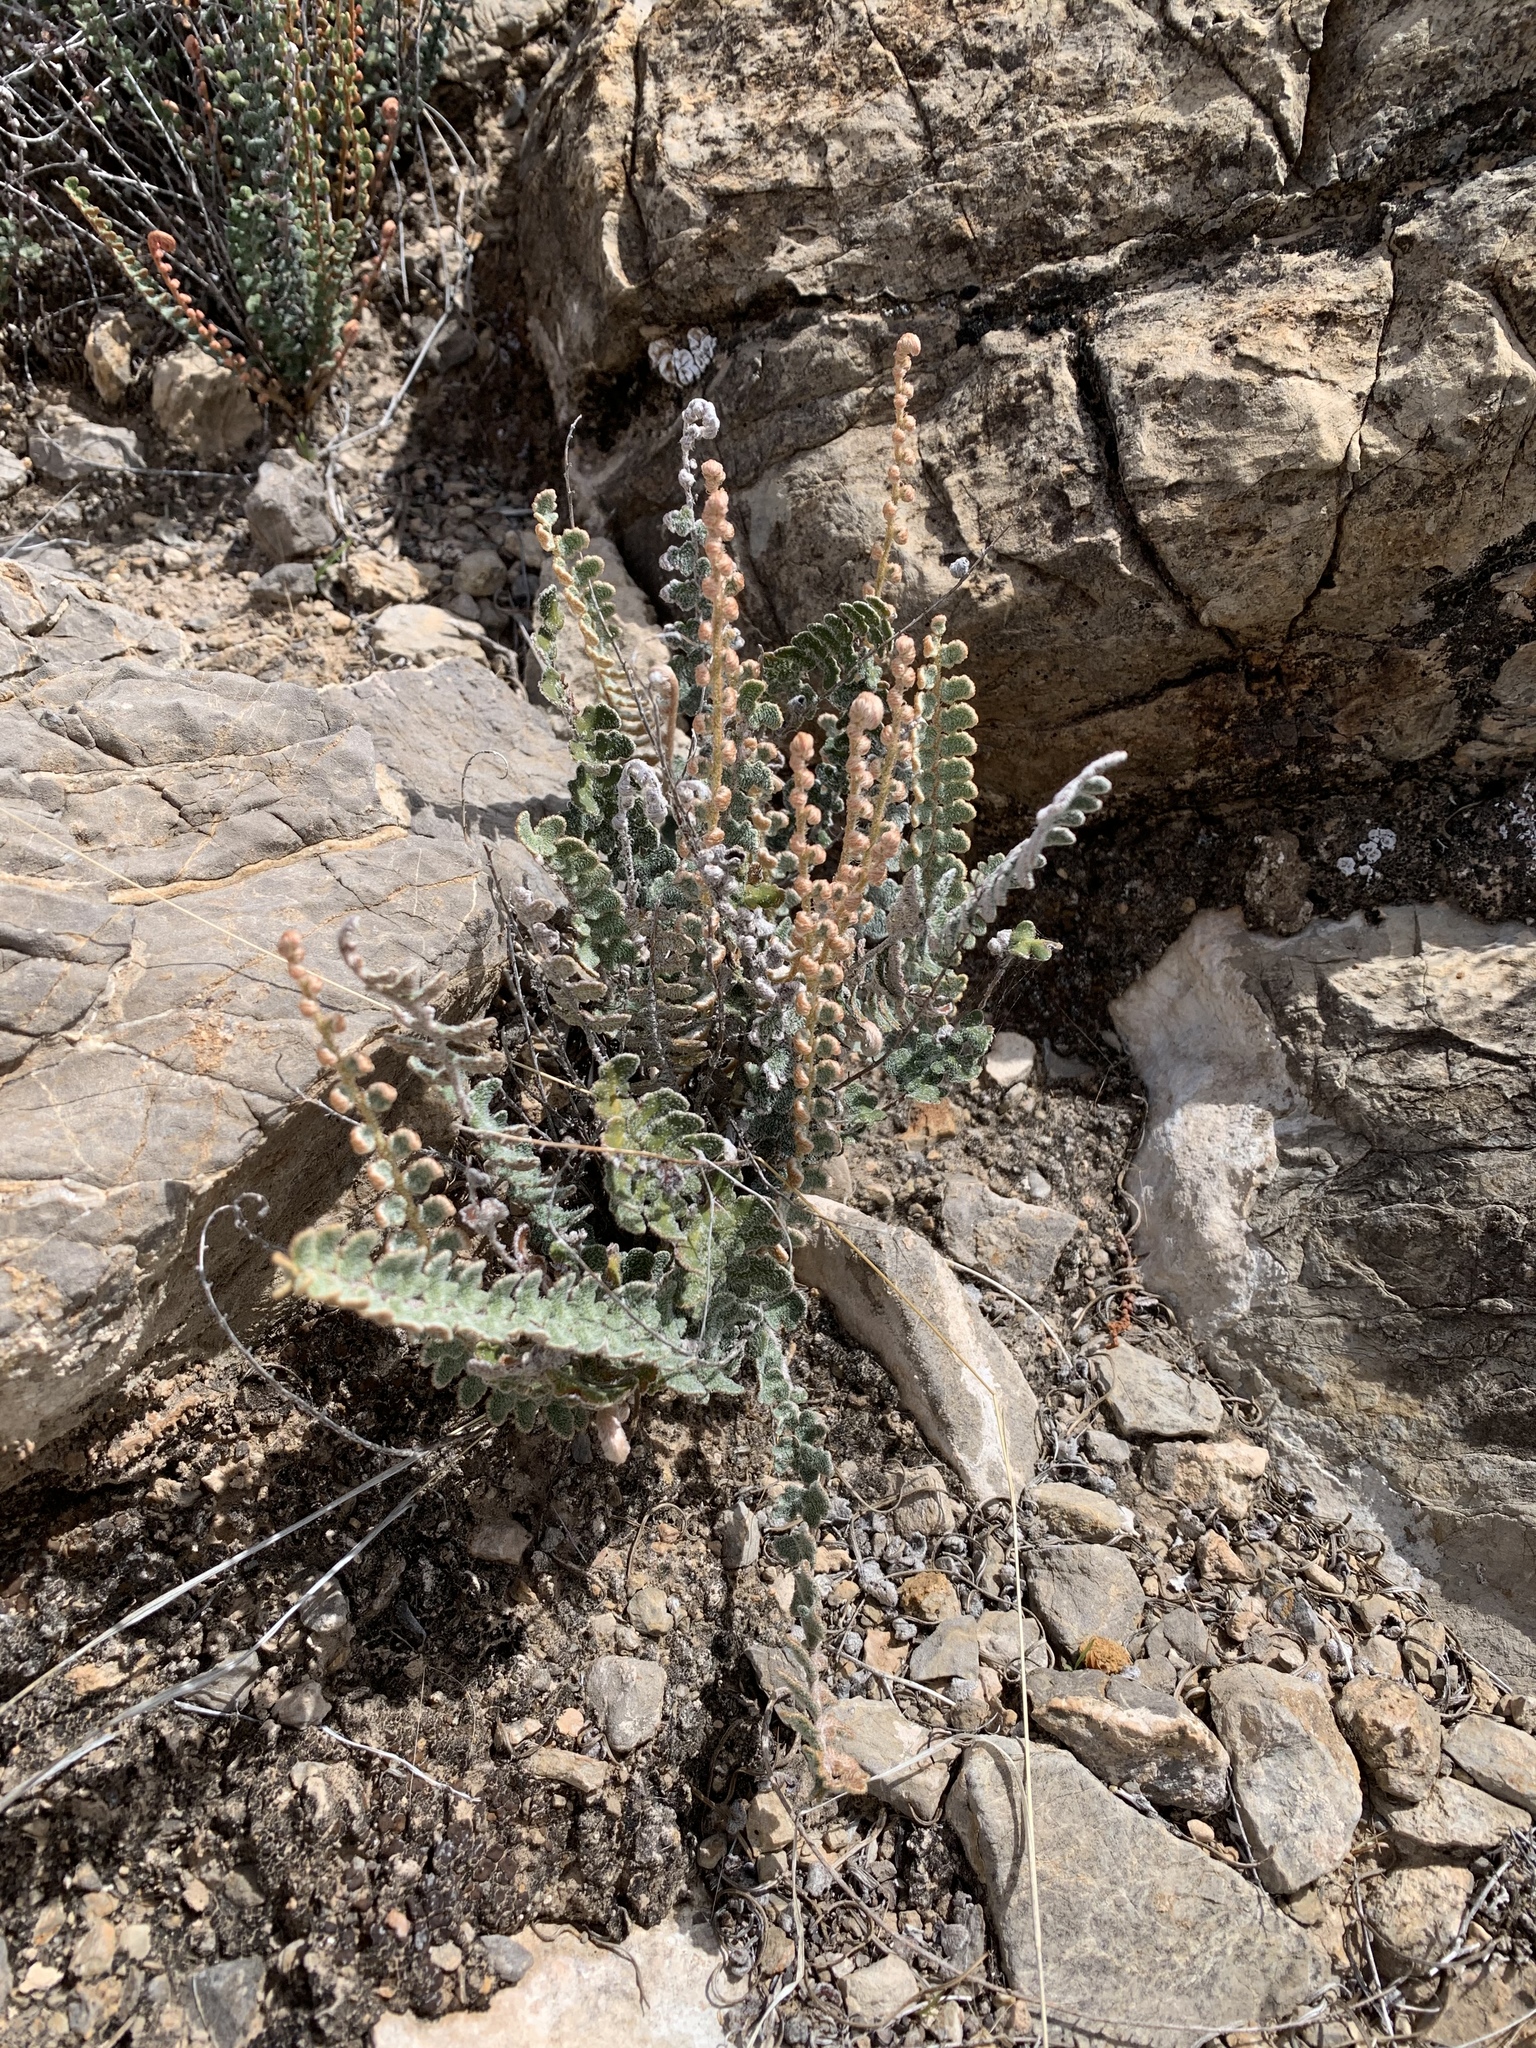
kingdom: Plantae
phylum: Tracheophyta
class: Polypodiopsida
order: Polypodiales
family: Pteridaceae
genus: Astrolepis
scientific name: Astrolepis integerrima
